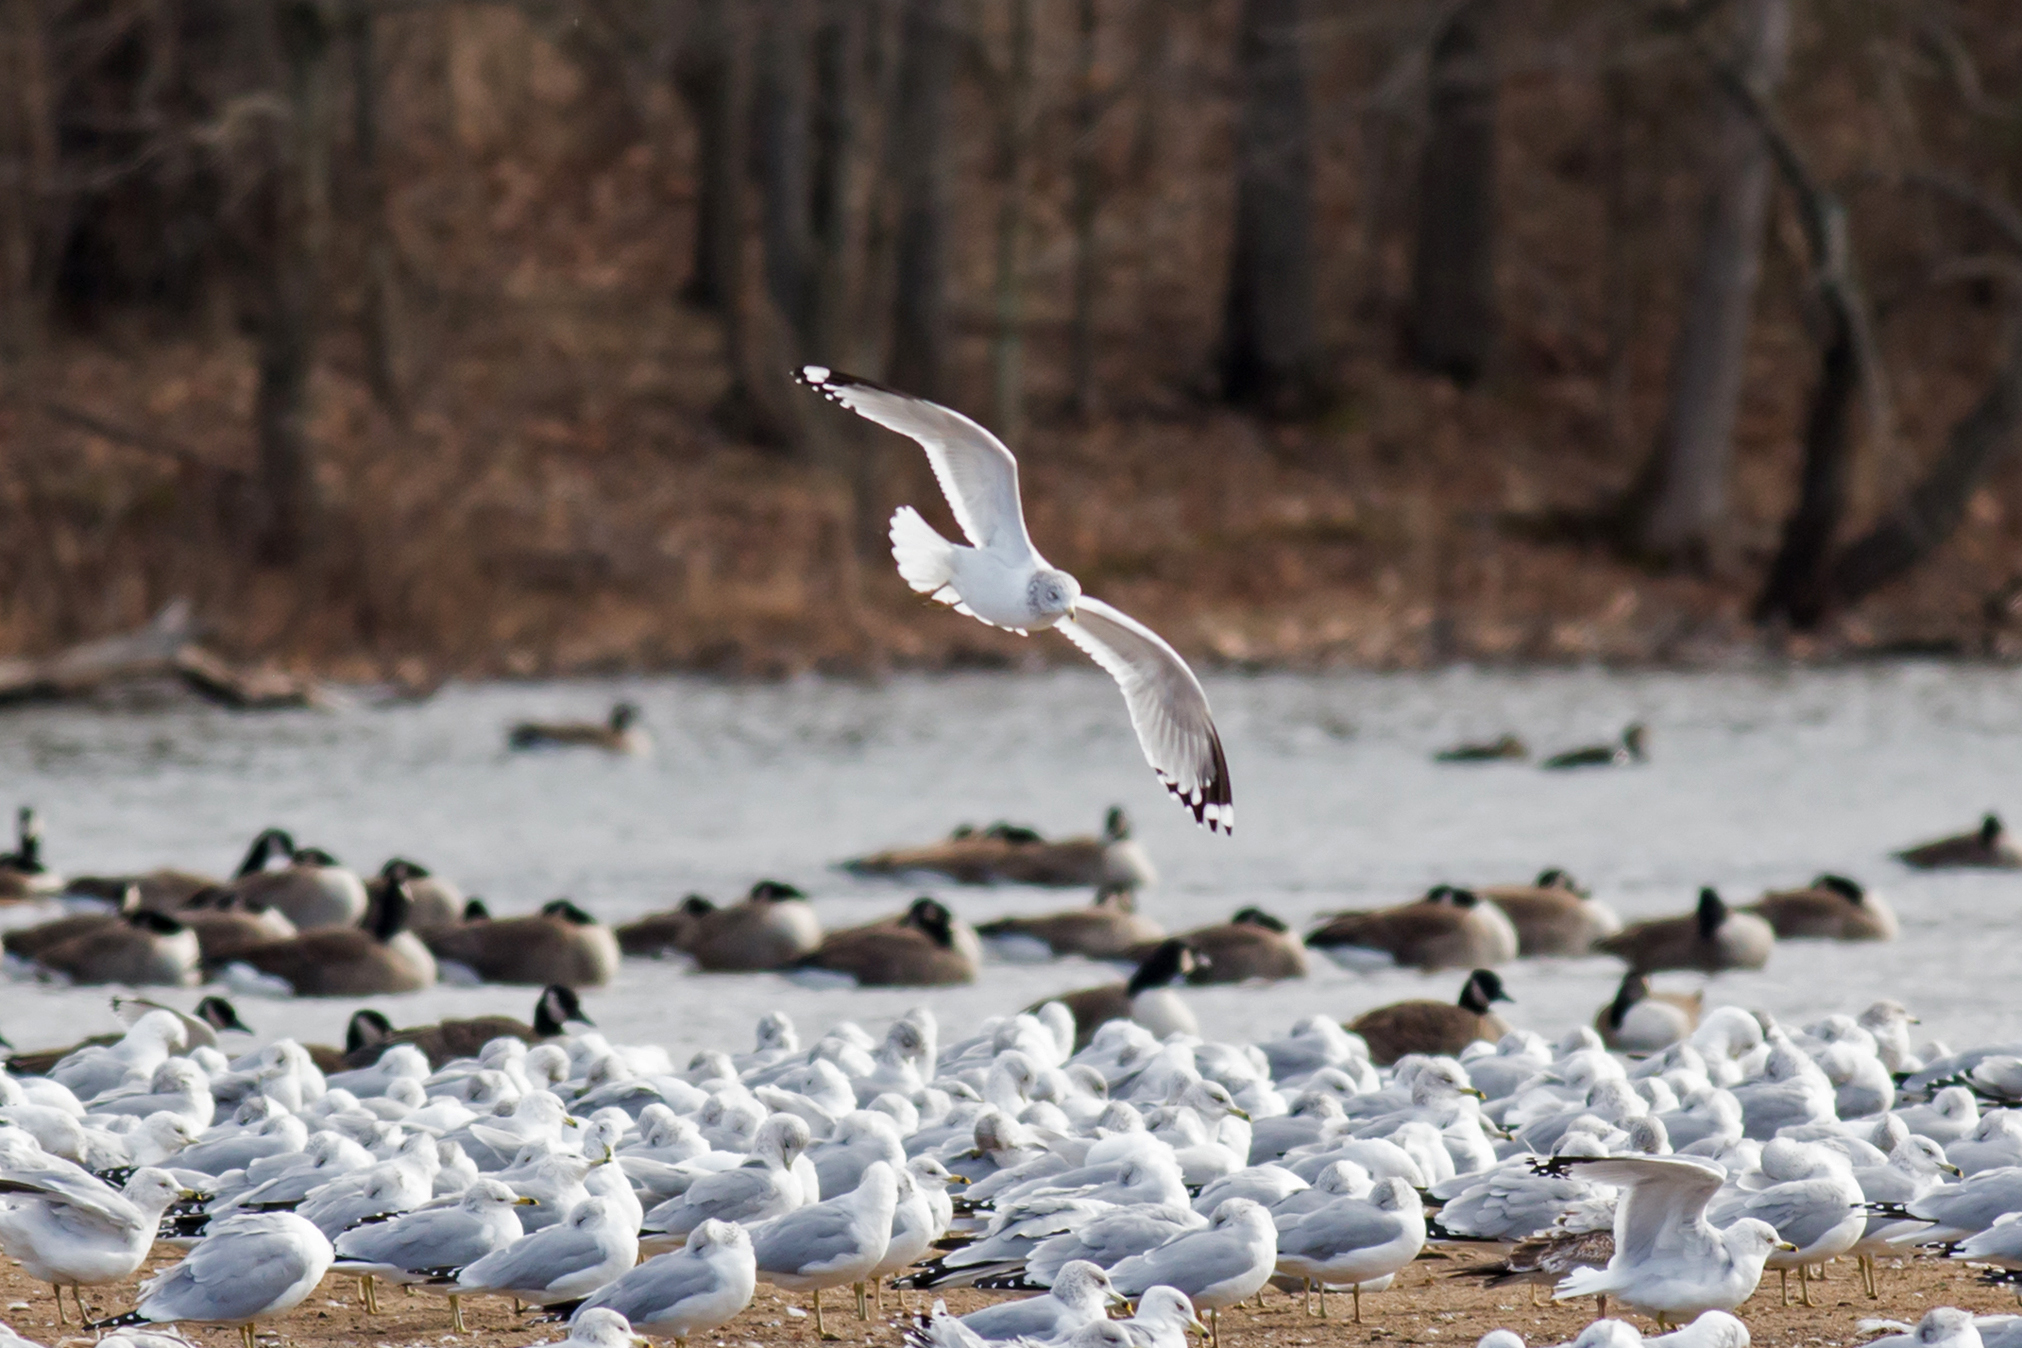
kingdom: Animalia
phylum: Chordata
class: Aves
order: Charadriiformes
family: Laridae
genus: Larus
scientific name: Larus delawarensis
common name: Ring-billed gull
